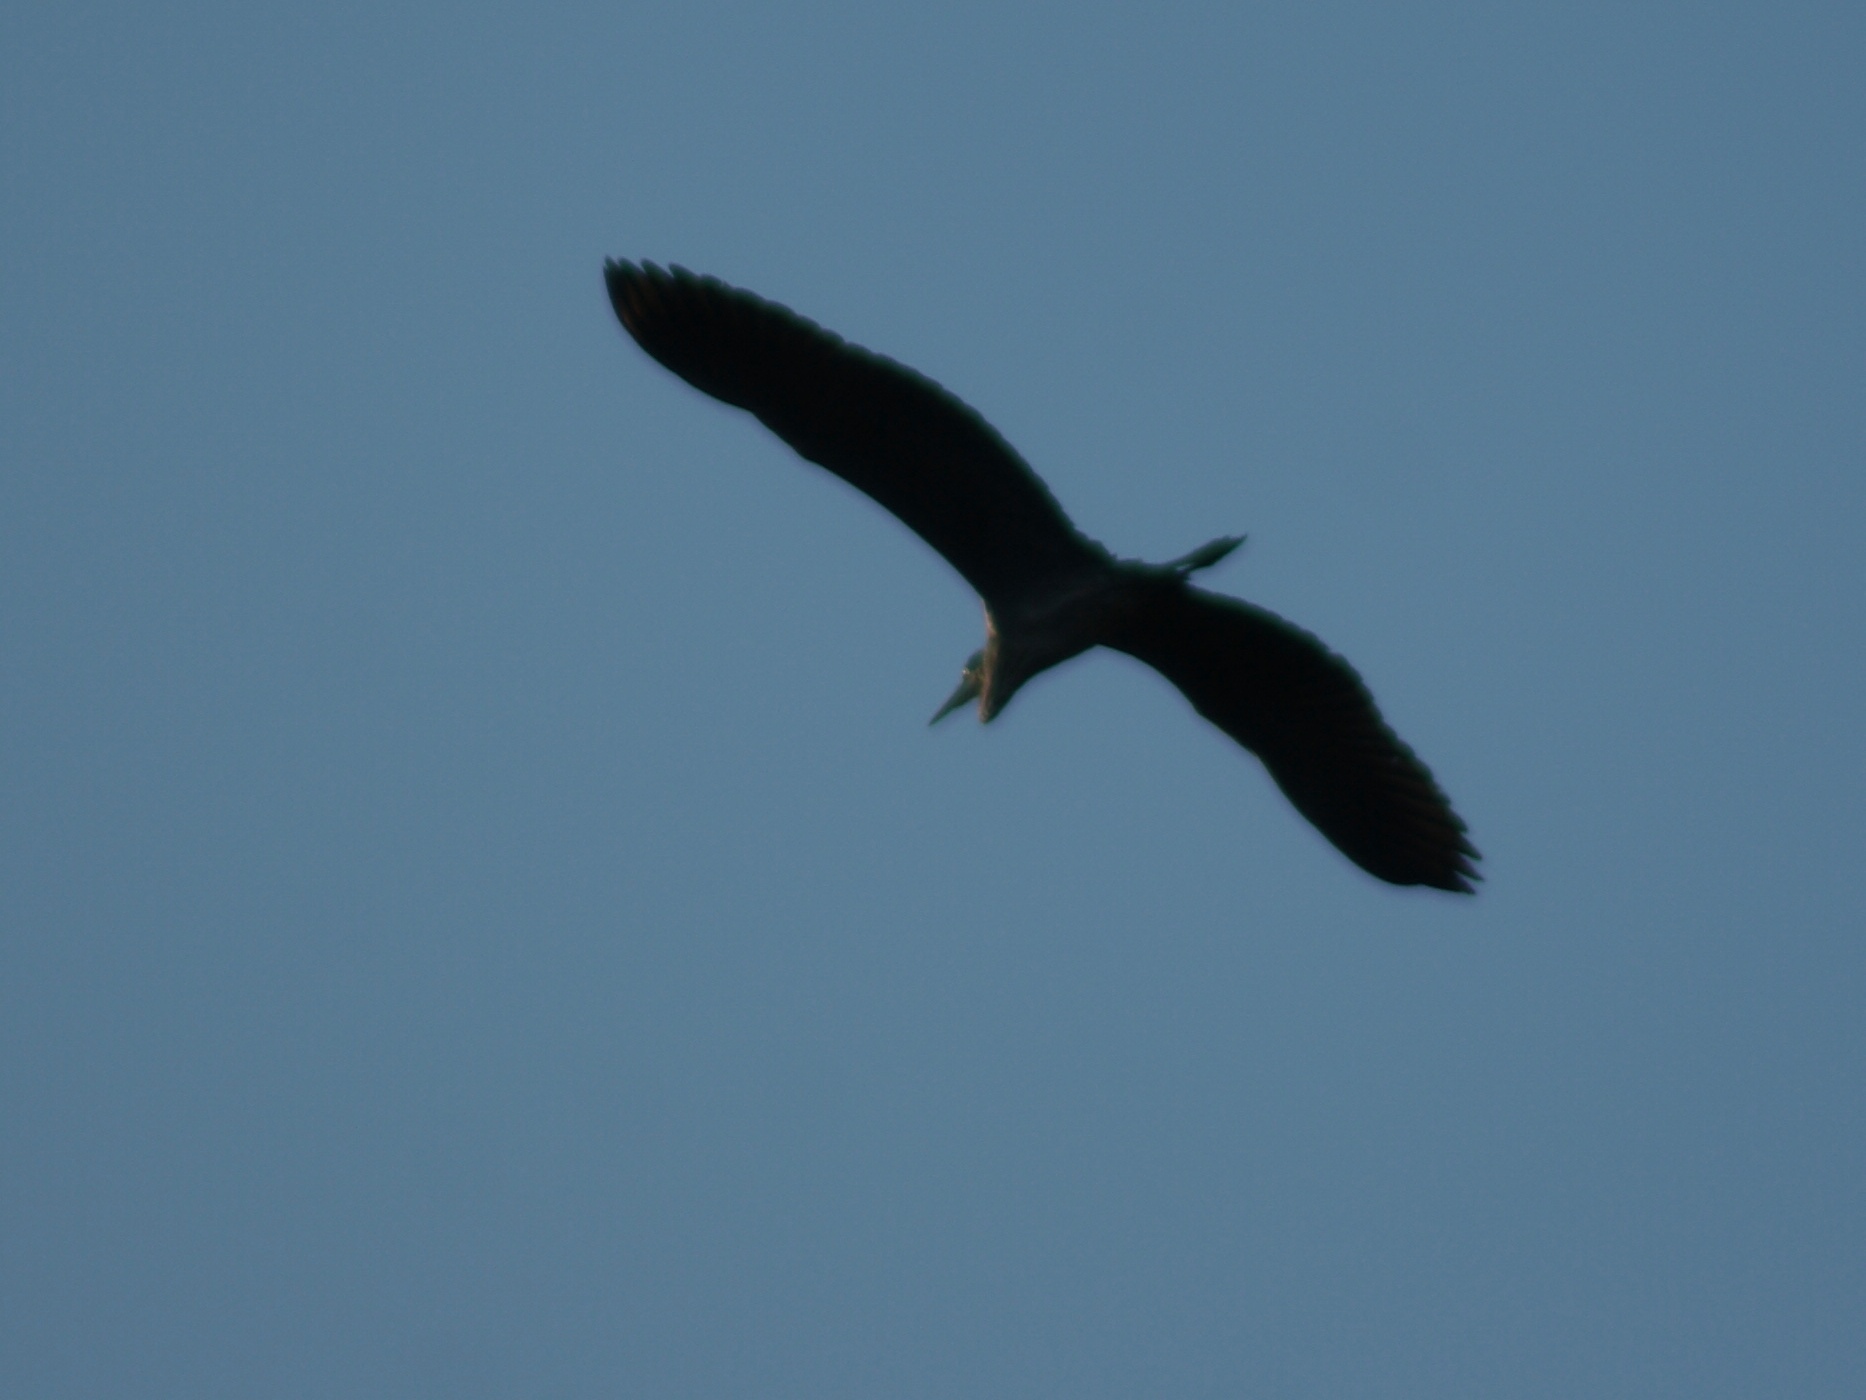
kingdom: Animalia
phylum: Chordata
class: Aves
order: Pelecaniformes
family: Ardeidae
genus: Ardea
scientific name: Ardea cinerea
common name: Grey heron
